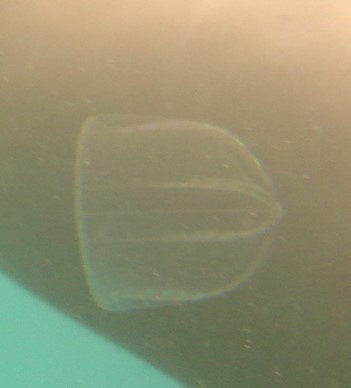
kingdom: Animalia
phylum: Ctenophora
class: Nuda
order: Beroida
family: Beroidae
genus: Beroe
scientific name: Beroe ovata
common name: Flattened helmet comb jelly
